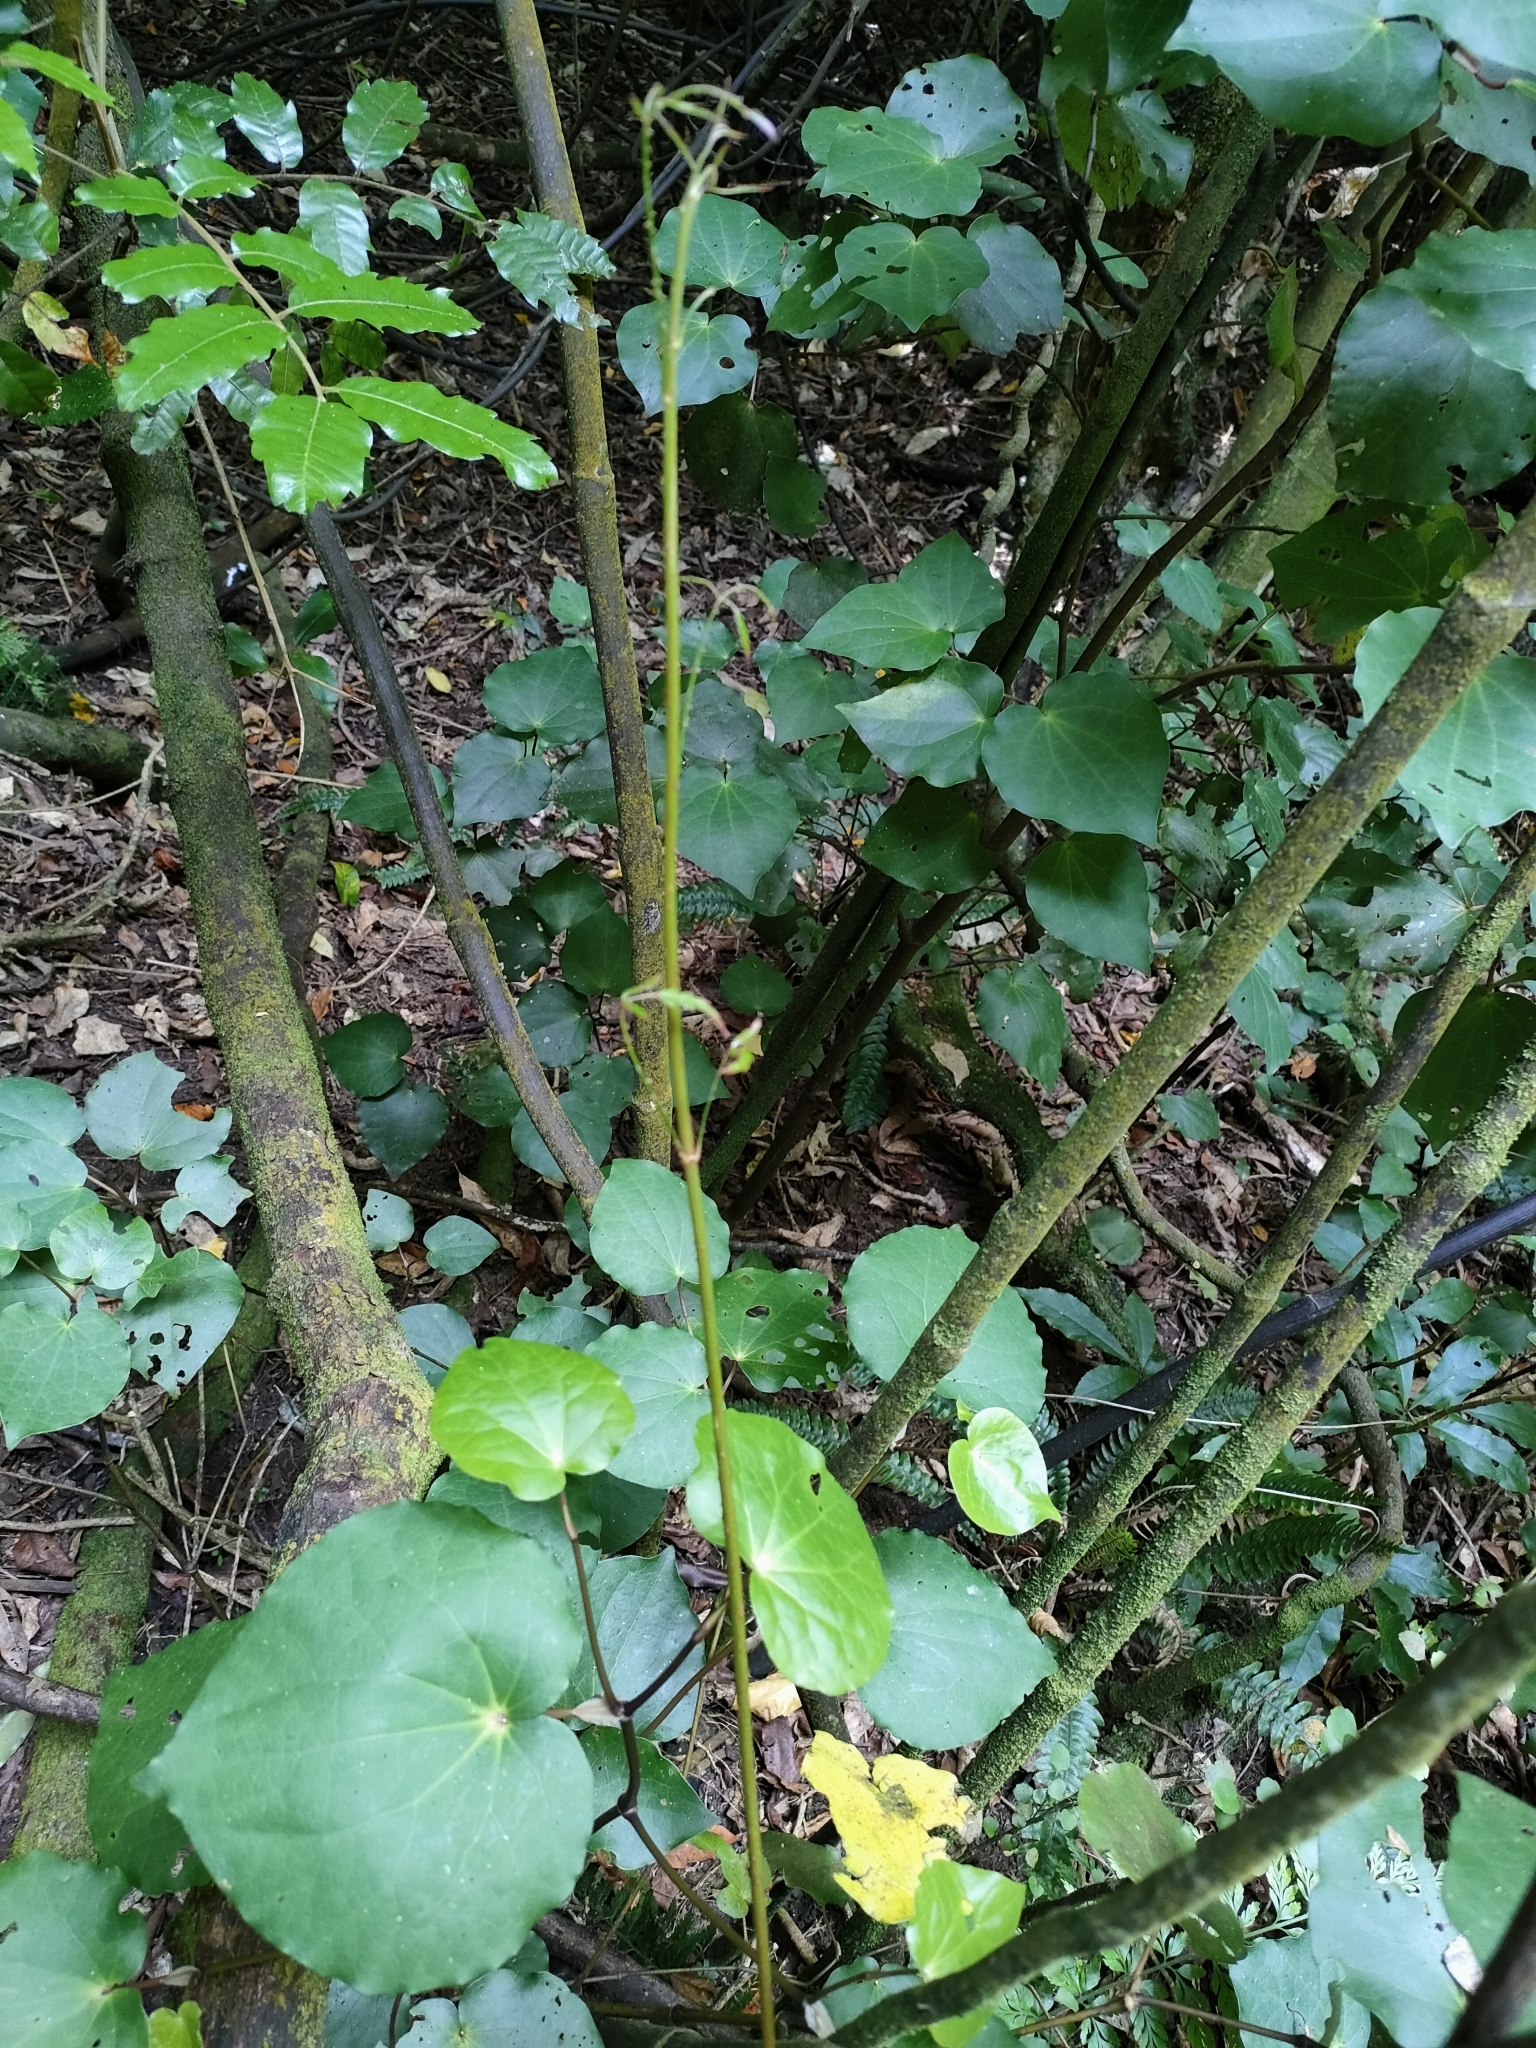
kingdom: Plantae
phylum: Tracheophyta
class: Magnoliopsida
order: Piperales
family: Piperaceae
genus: Macropiper
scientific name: Macropiper excelsum
